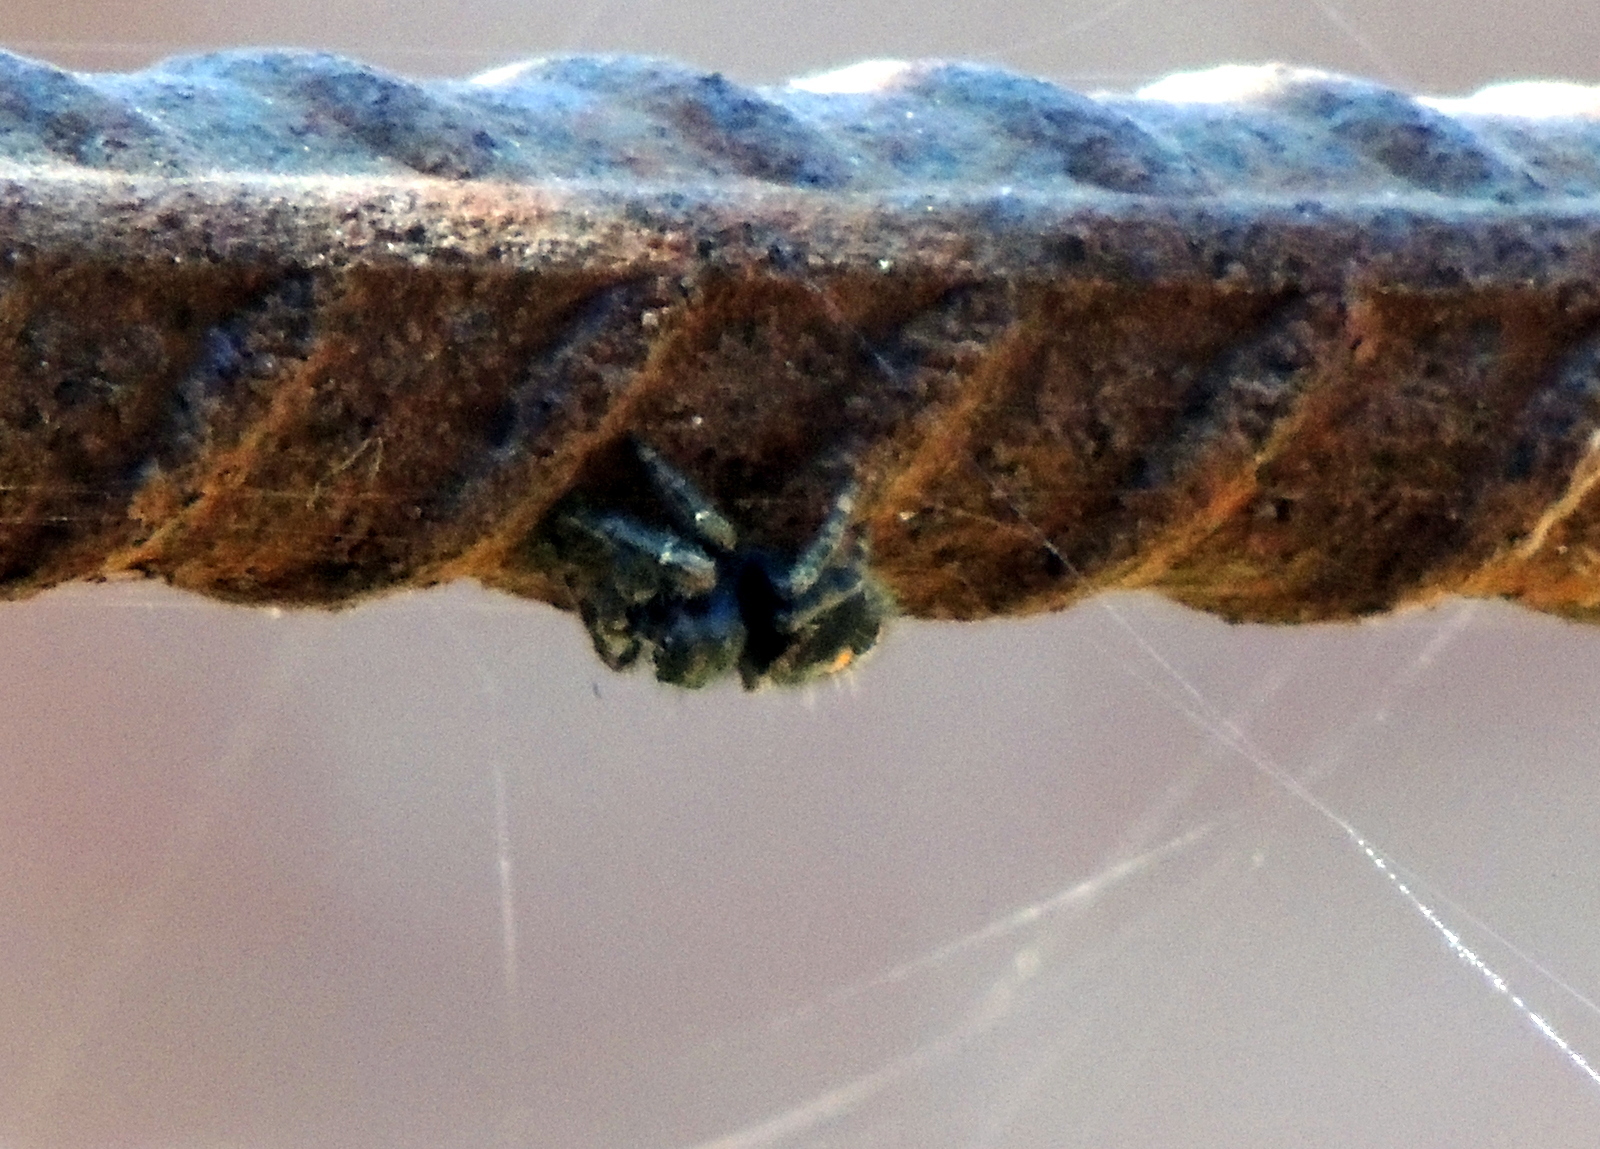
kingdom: Animalia
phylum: Arthropoda
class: Arachnida
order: Araneae
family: Salticidae
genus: Phidippus
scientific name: Phidippus audax
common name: Bold jumper
